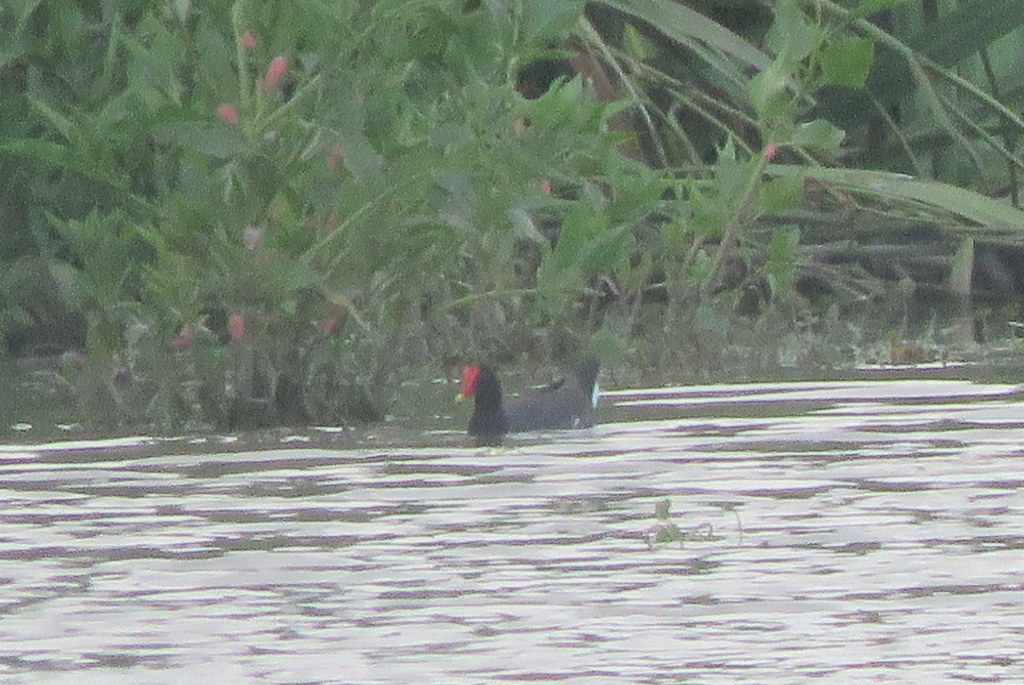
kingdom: Animalia
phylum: Chordata
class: Aves
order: Gruiformes
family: Rallidae
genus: Gallinula
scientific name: Gallinula chloropus
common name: Common moorhen
